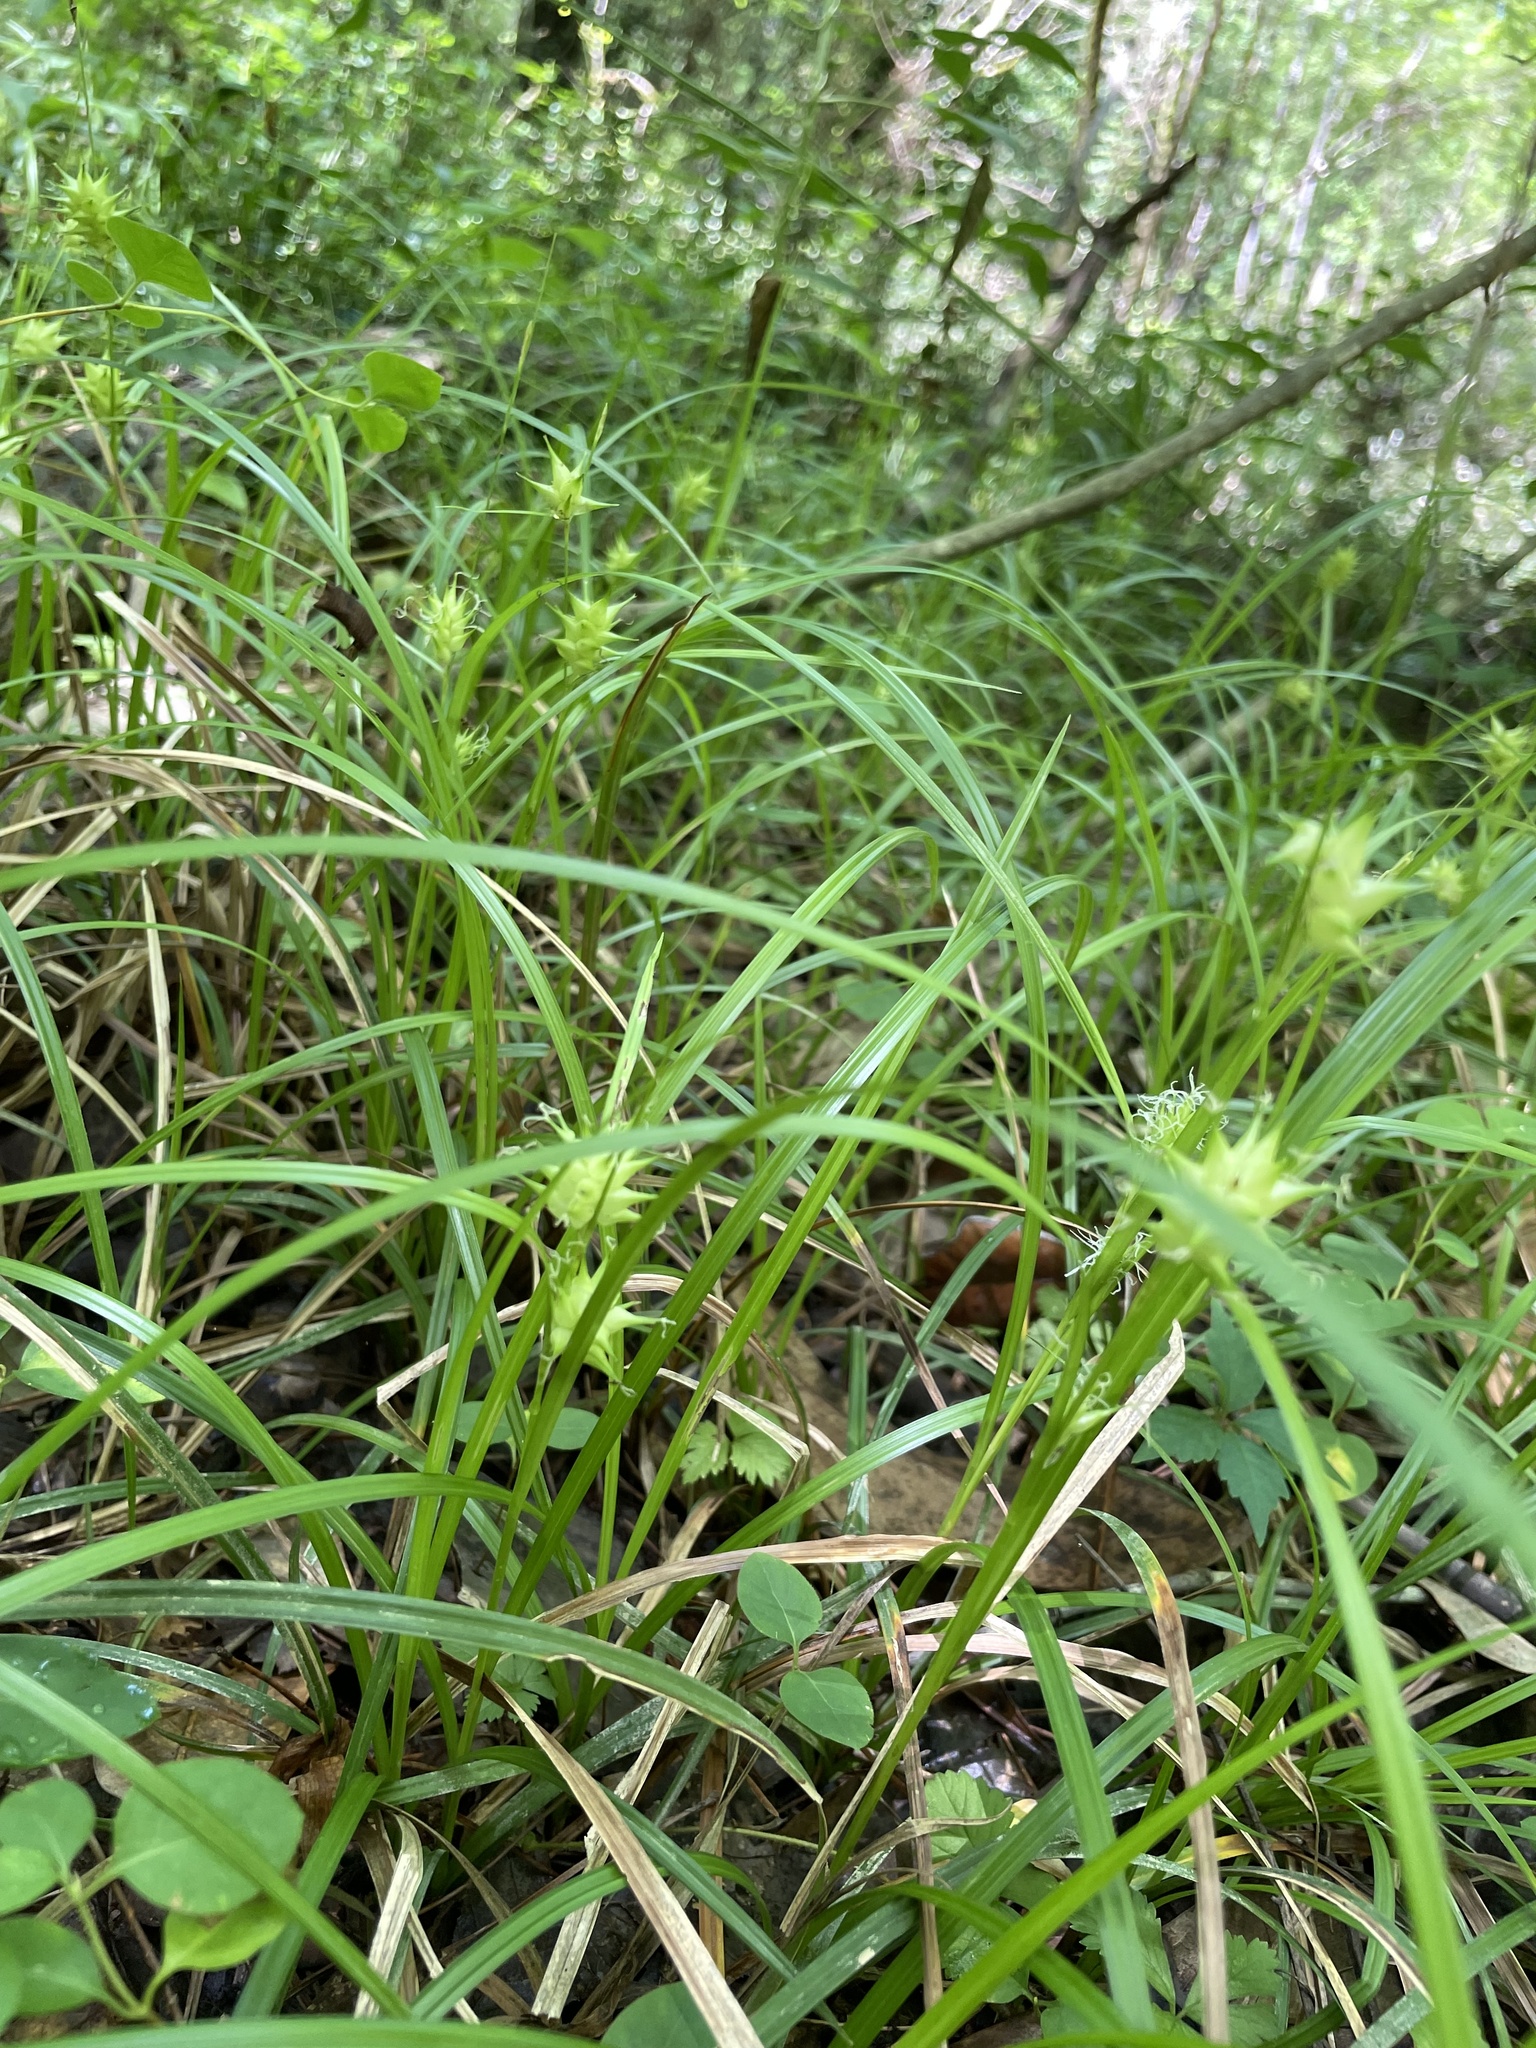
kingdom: Plantae
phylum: Tracheophyta
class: Liliopsida
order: Poales
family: Cyperaceae
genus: Carex
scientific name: Carex louisianica
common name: Louisiana sedge
